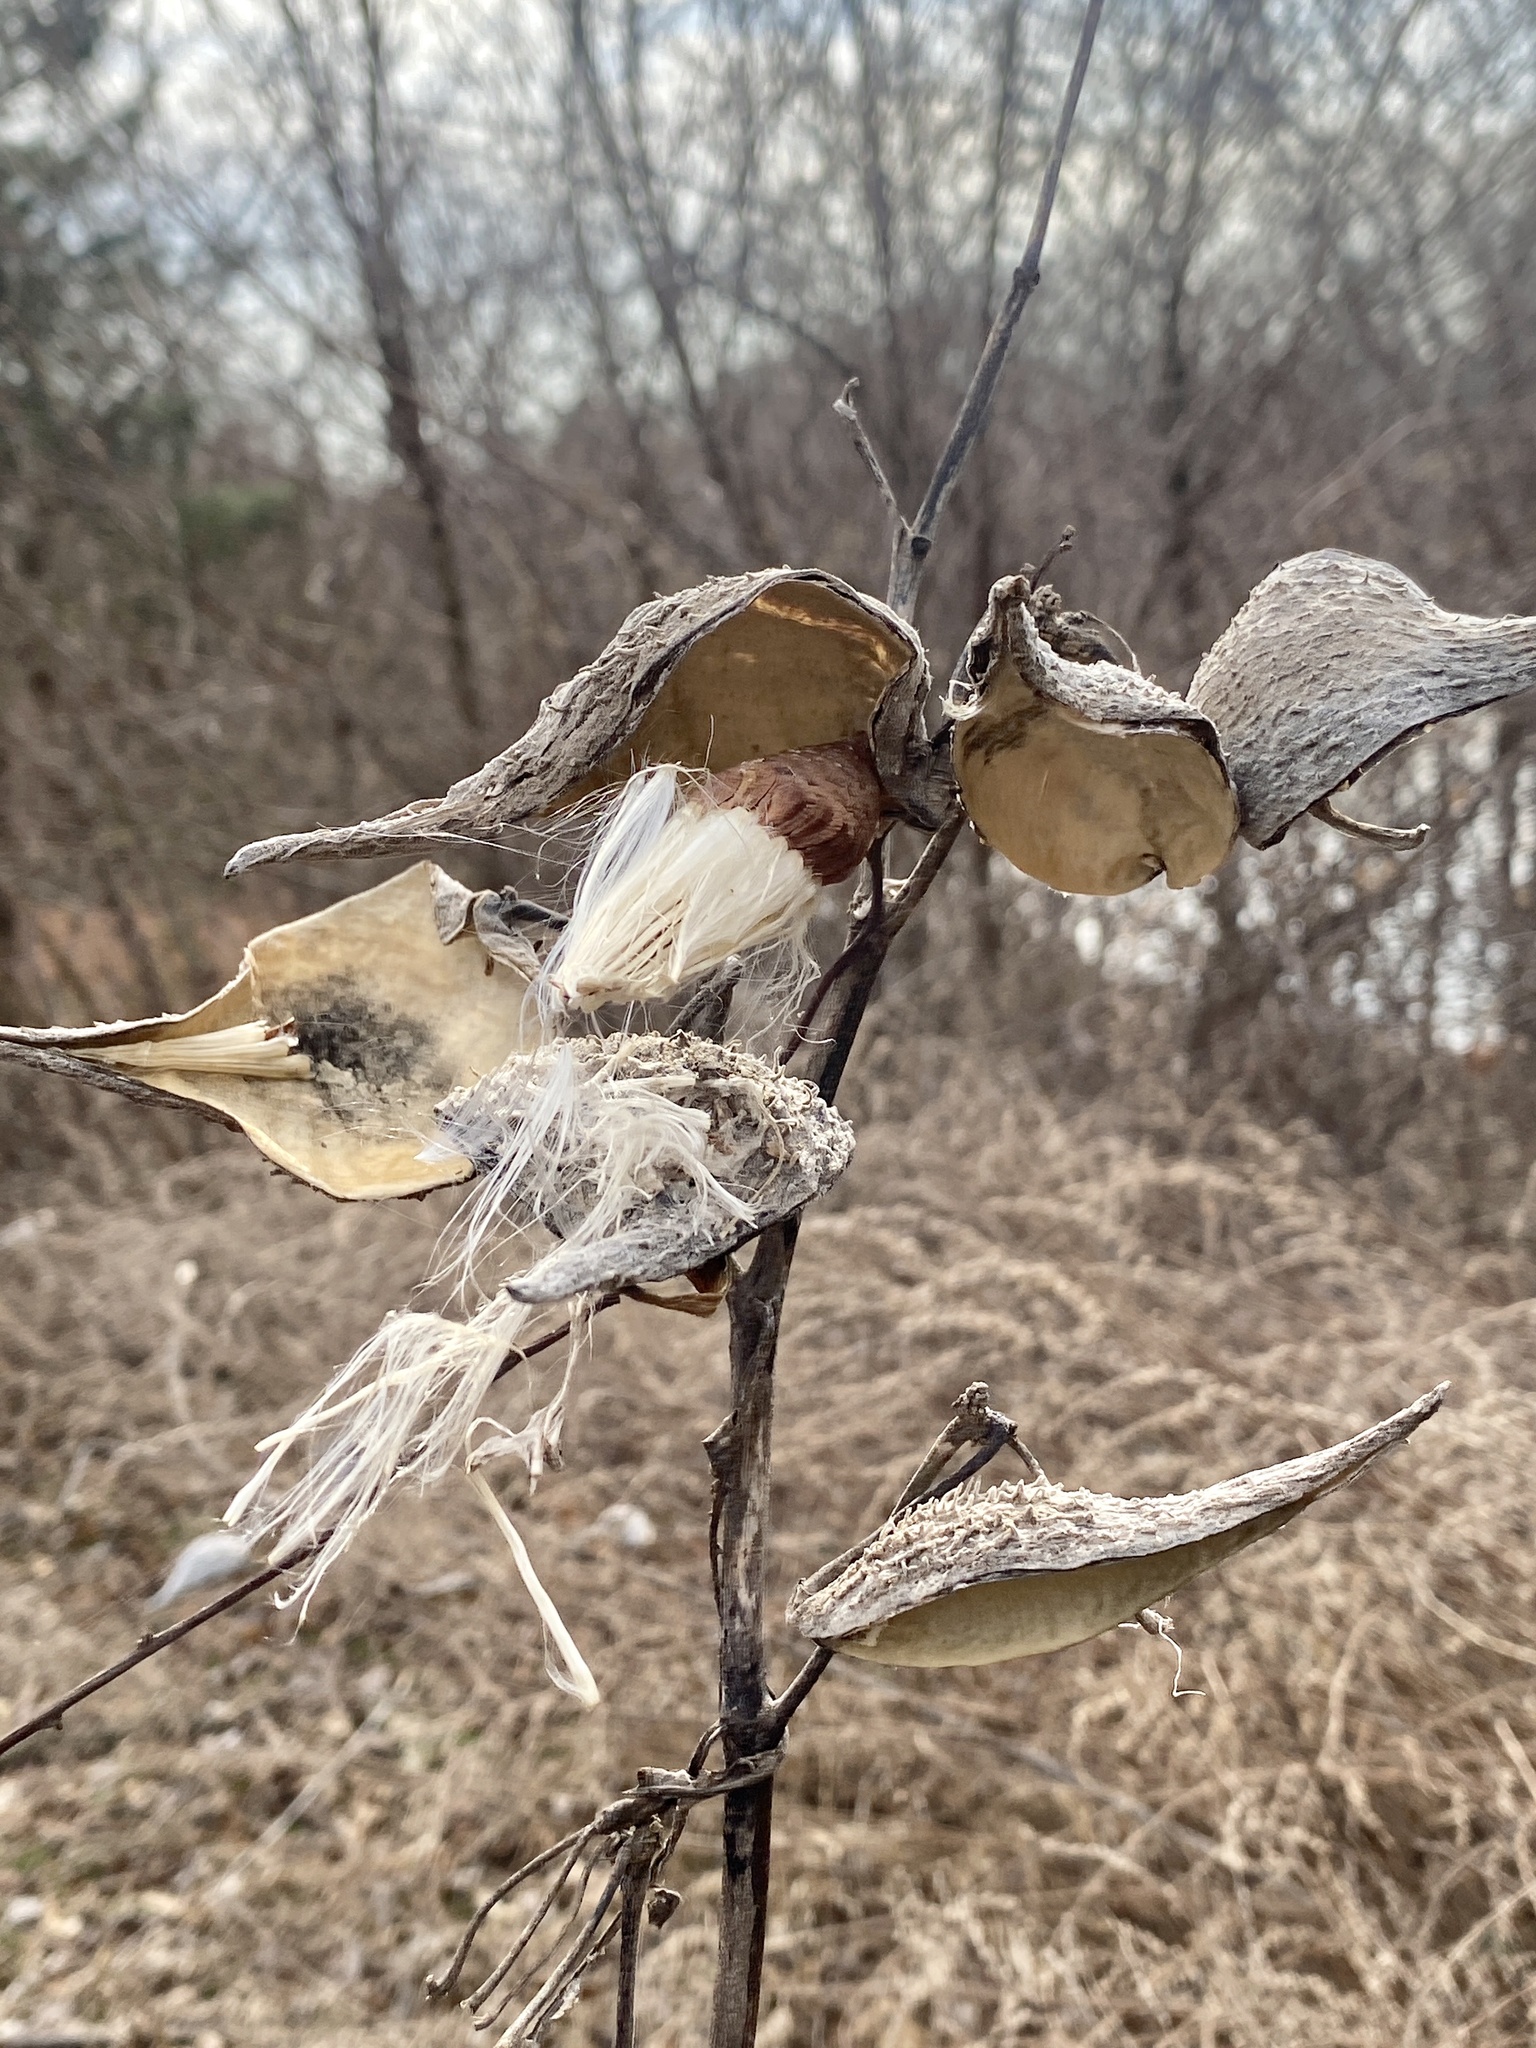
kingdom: Plantae
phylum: Tracheophyta
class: Magnoliopsida
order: Gentianales
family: Apocynaceae
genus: Asclepias
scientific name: Asclepias syriaca
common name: Common milkweed
